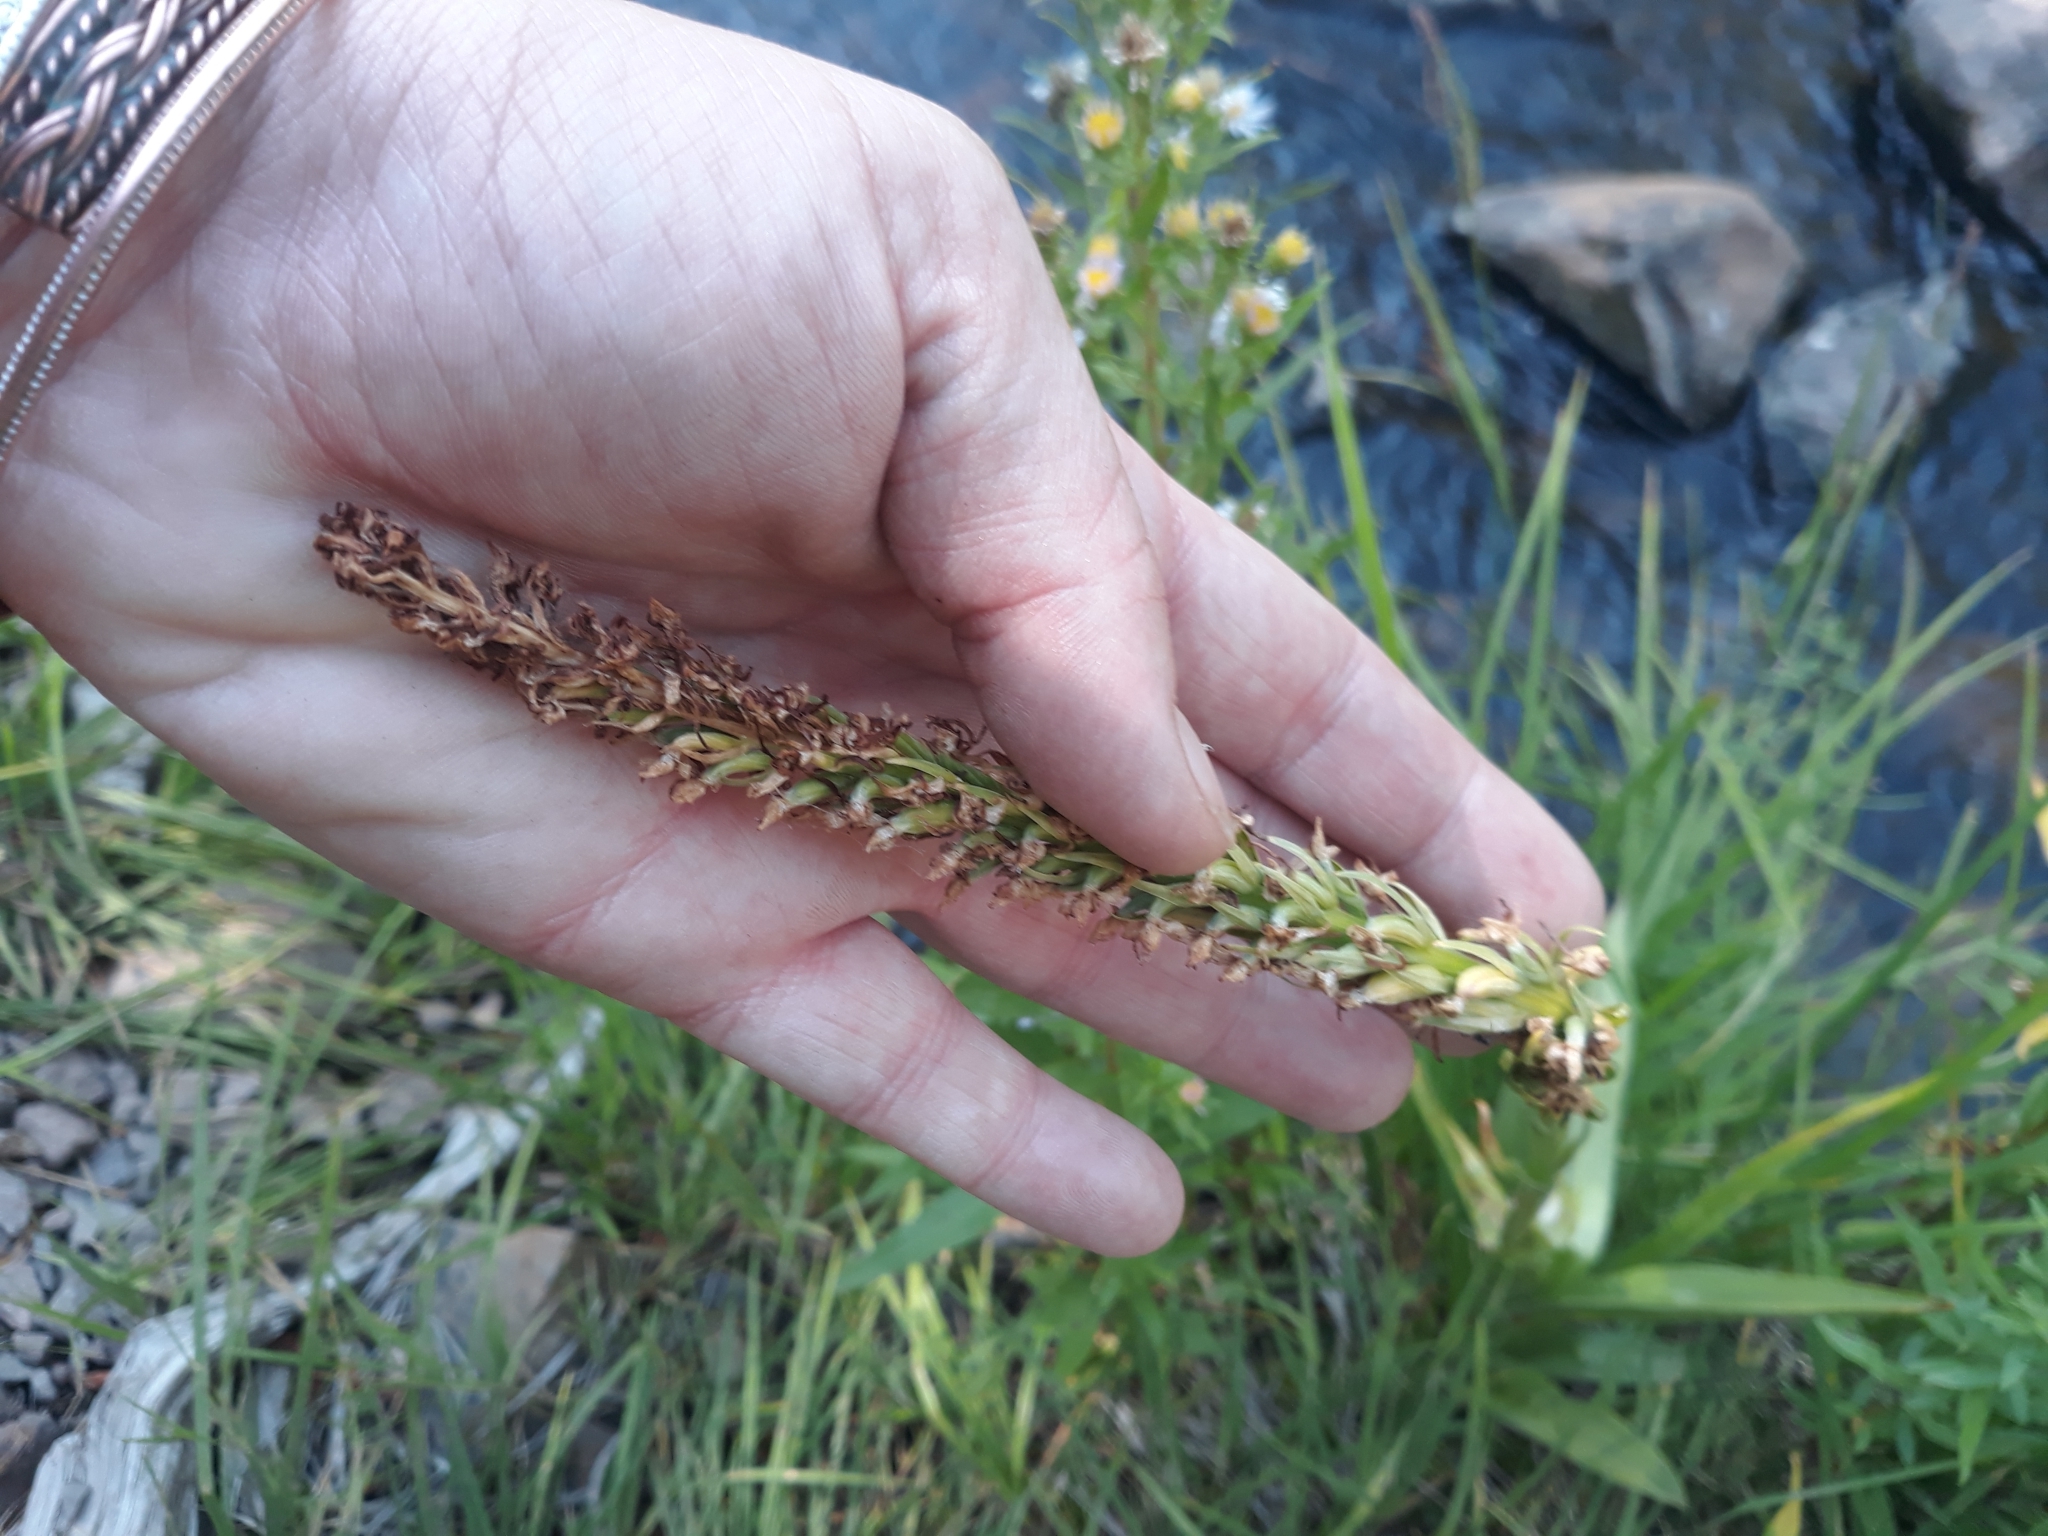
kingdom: Plantae
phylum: Tracheophyta
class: Liliopsida
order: Asparagales
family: Orchidaceae
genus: Platanthera
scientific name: Platanthera dilatata
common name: Bog candles
